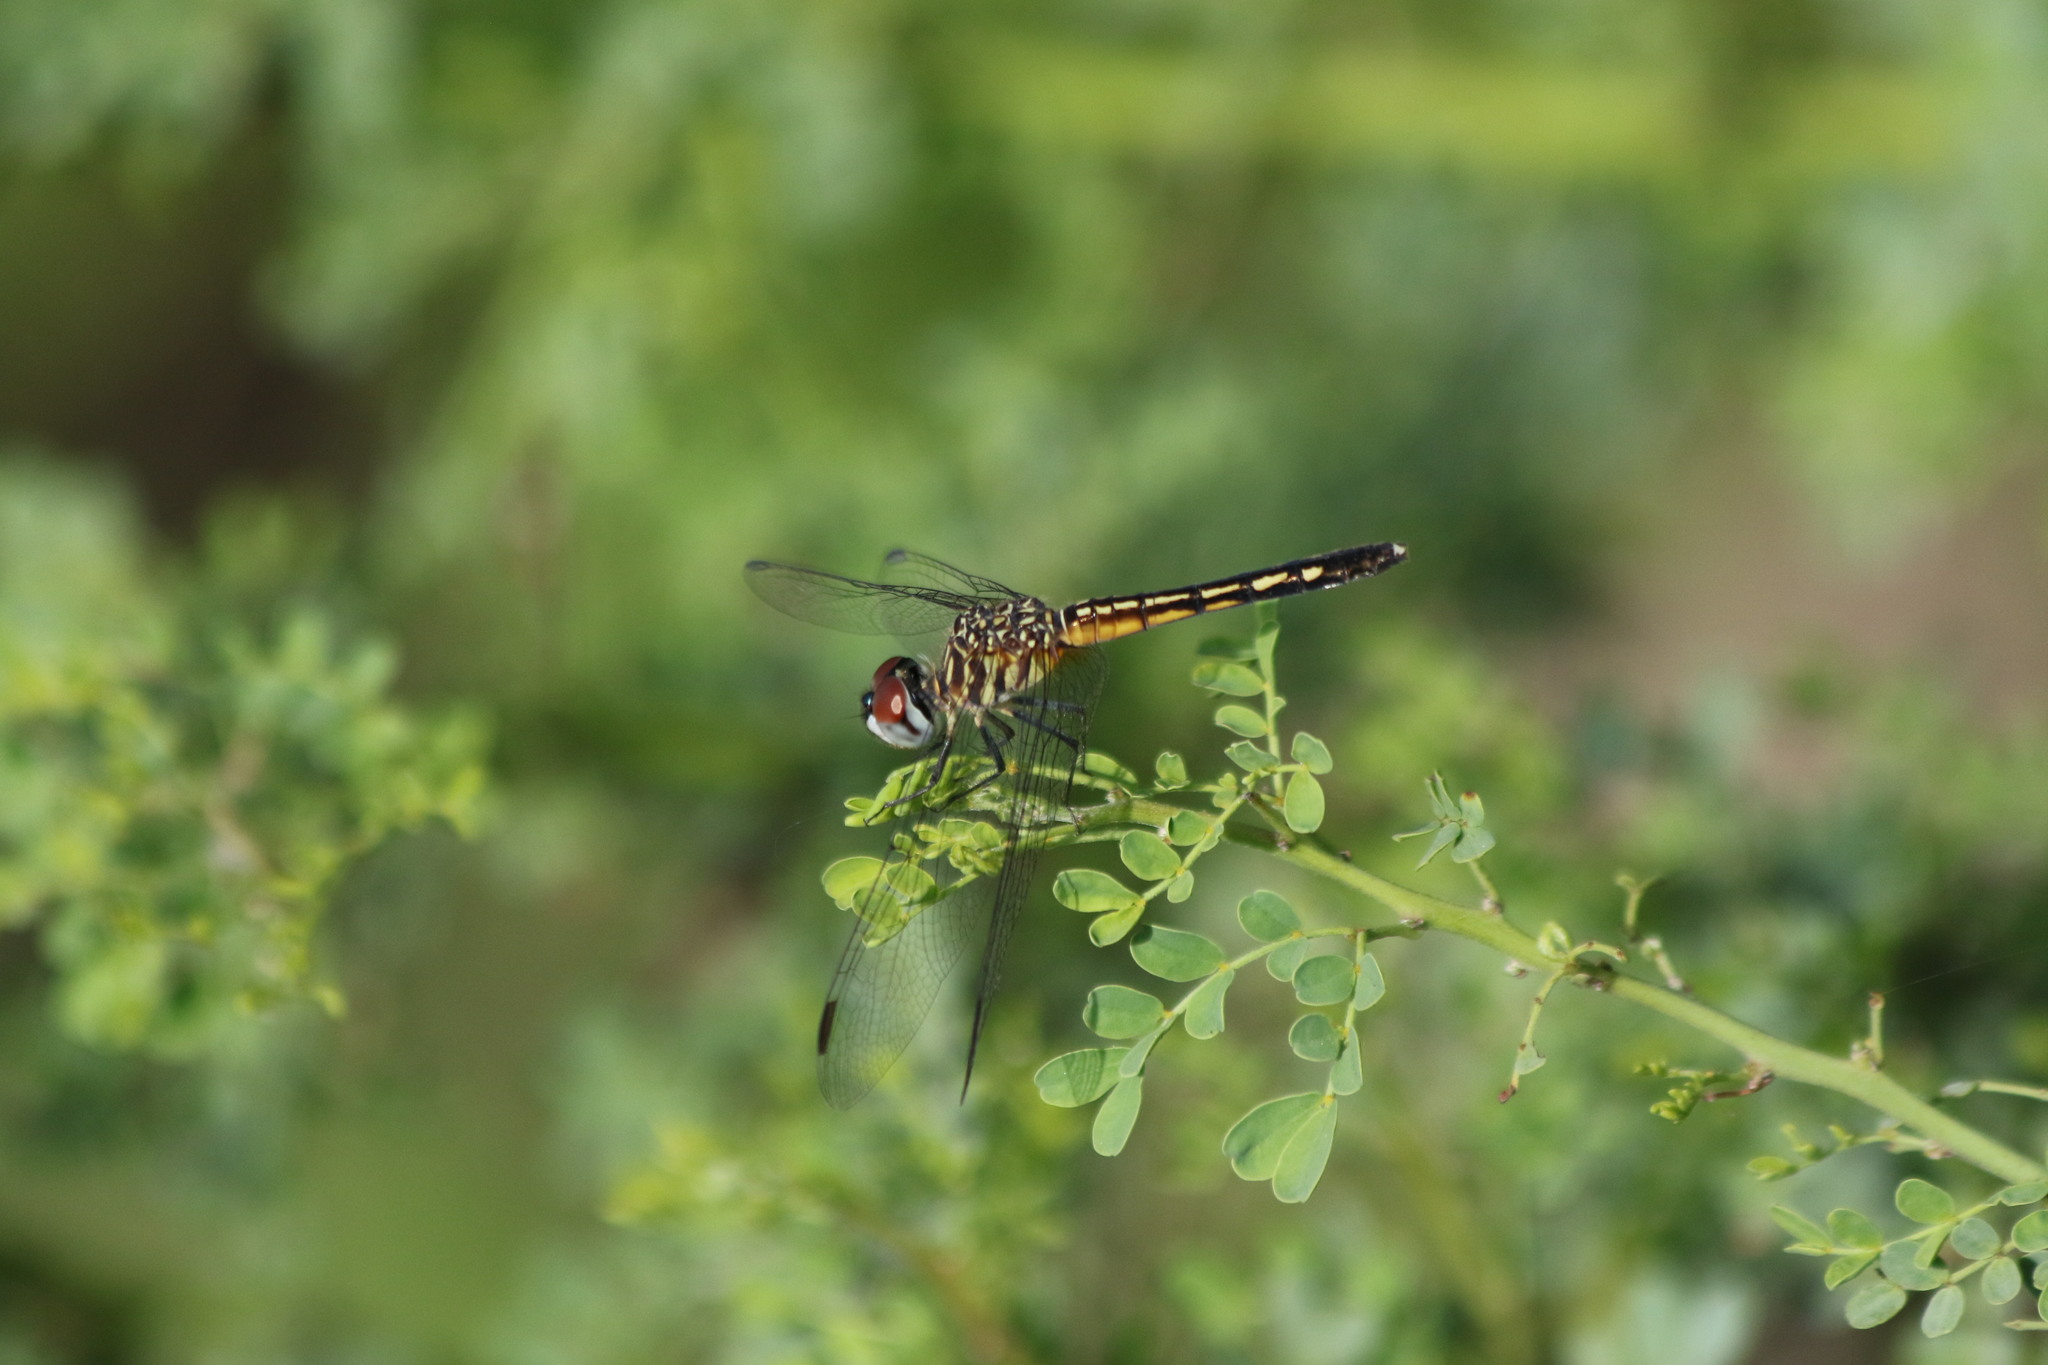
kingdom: Animalia
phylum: Arthropoda
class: Insecta
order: Odonata
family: Libellulidae
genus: Pachydiplax
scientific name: Pachydiplax longipennis
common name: Blue dasher
